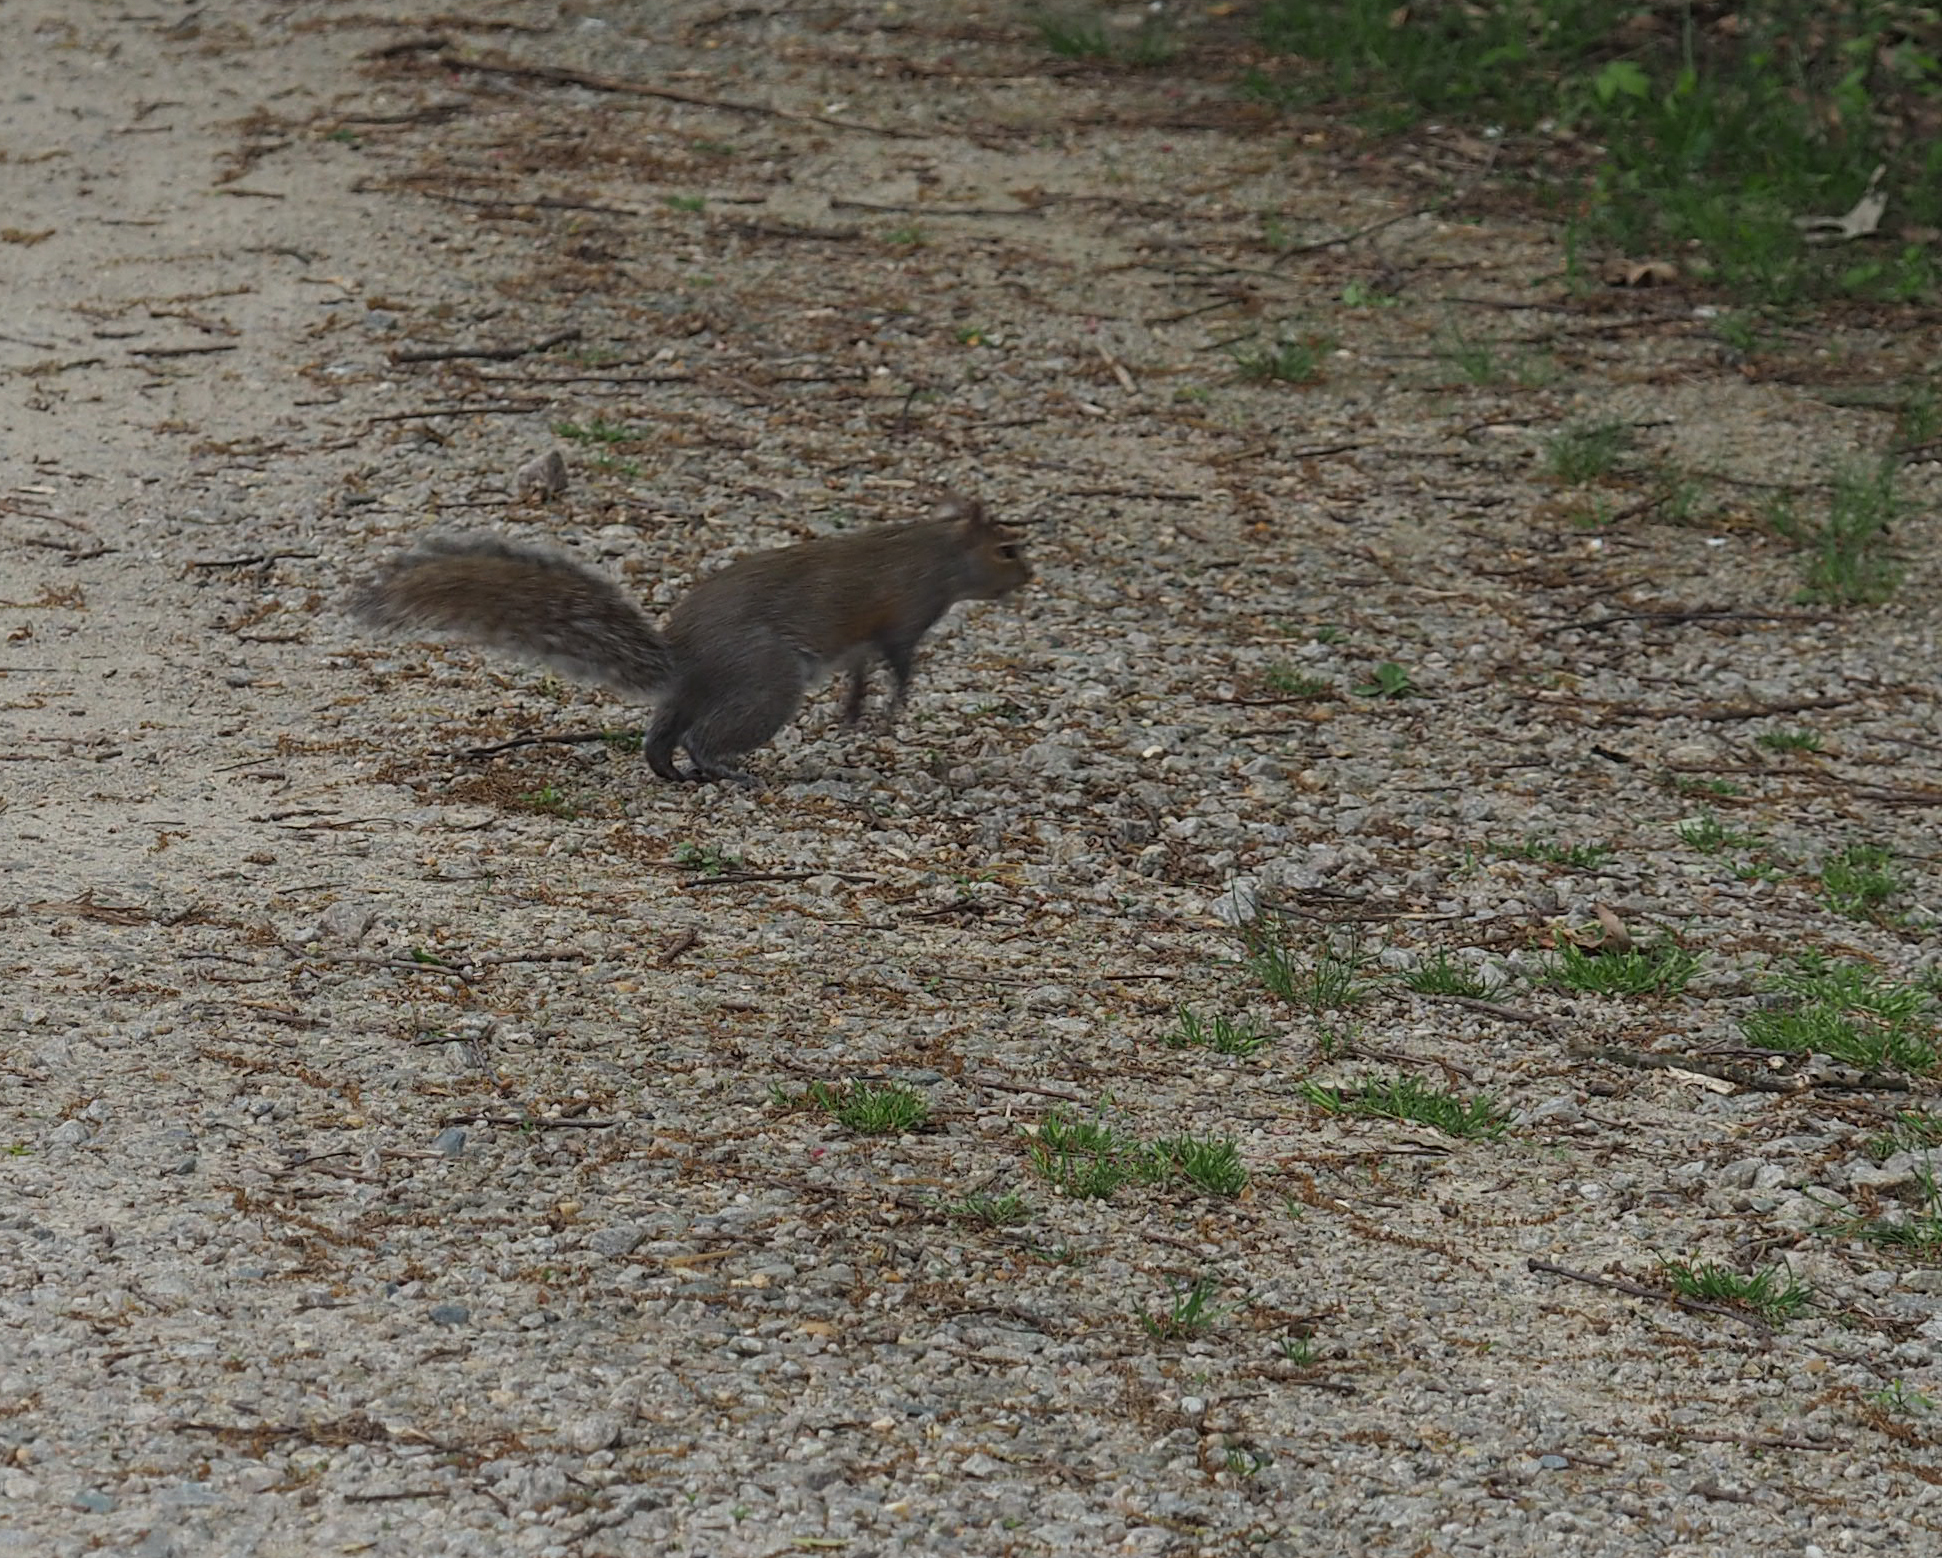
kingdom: Animalia
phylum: Chordata
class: Mammalia
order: Rodentia
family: Sciuridae
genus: Sciurus
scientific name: Sciurus carolinensis
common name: Eastern gray squirrel
